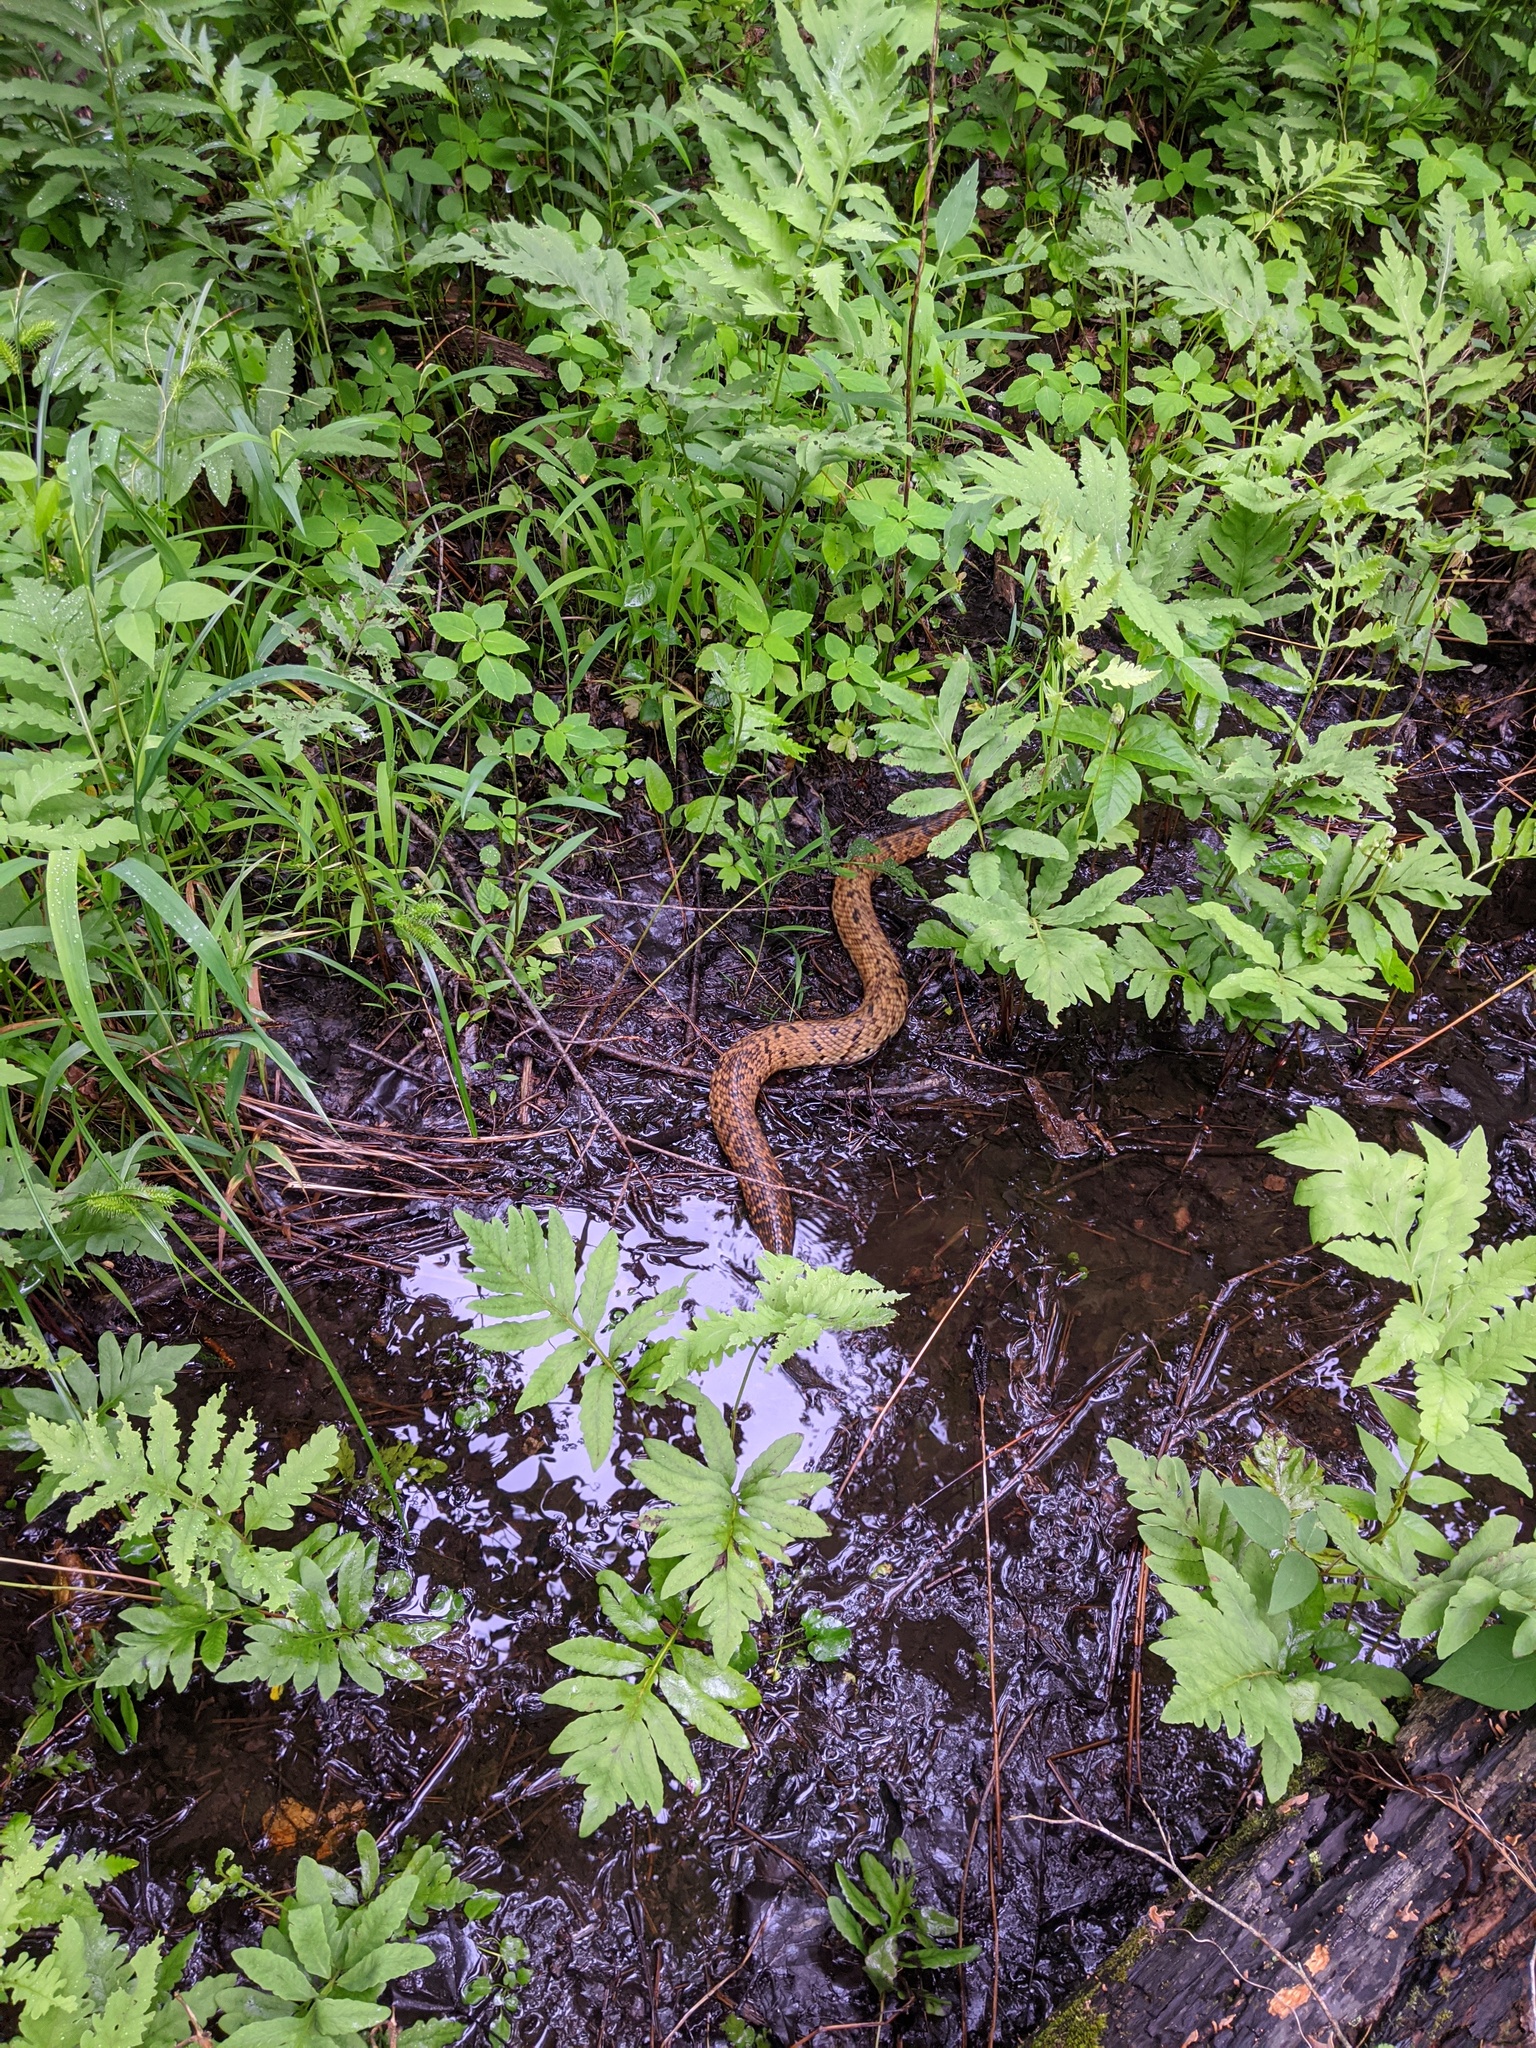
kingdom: Animalia
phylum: Chordata
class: Squamata
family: Viperidae
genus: Agkistrodon
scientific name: Agkistrodon piscivorus
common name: Cottonmouth
